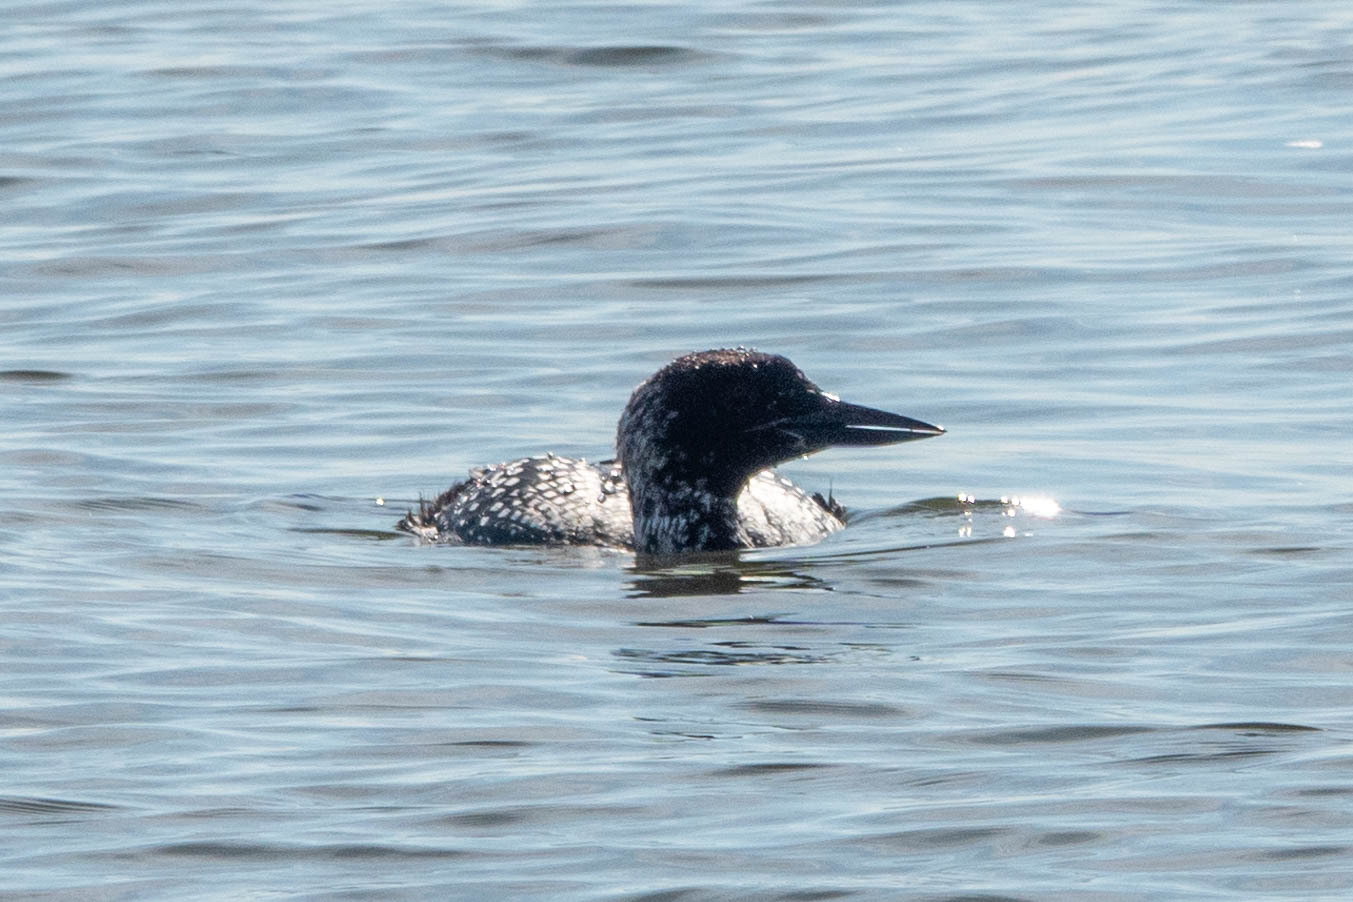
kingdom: Animalia
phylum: Chordata
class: Aves
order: Gaviiformes
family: Gaviidae
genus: Gavia
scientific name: Gavia immer
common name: Common loon
